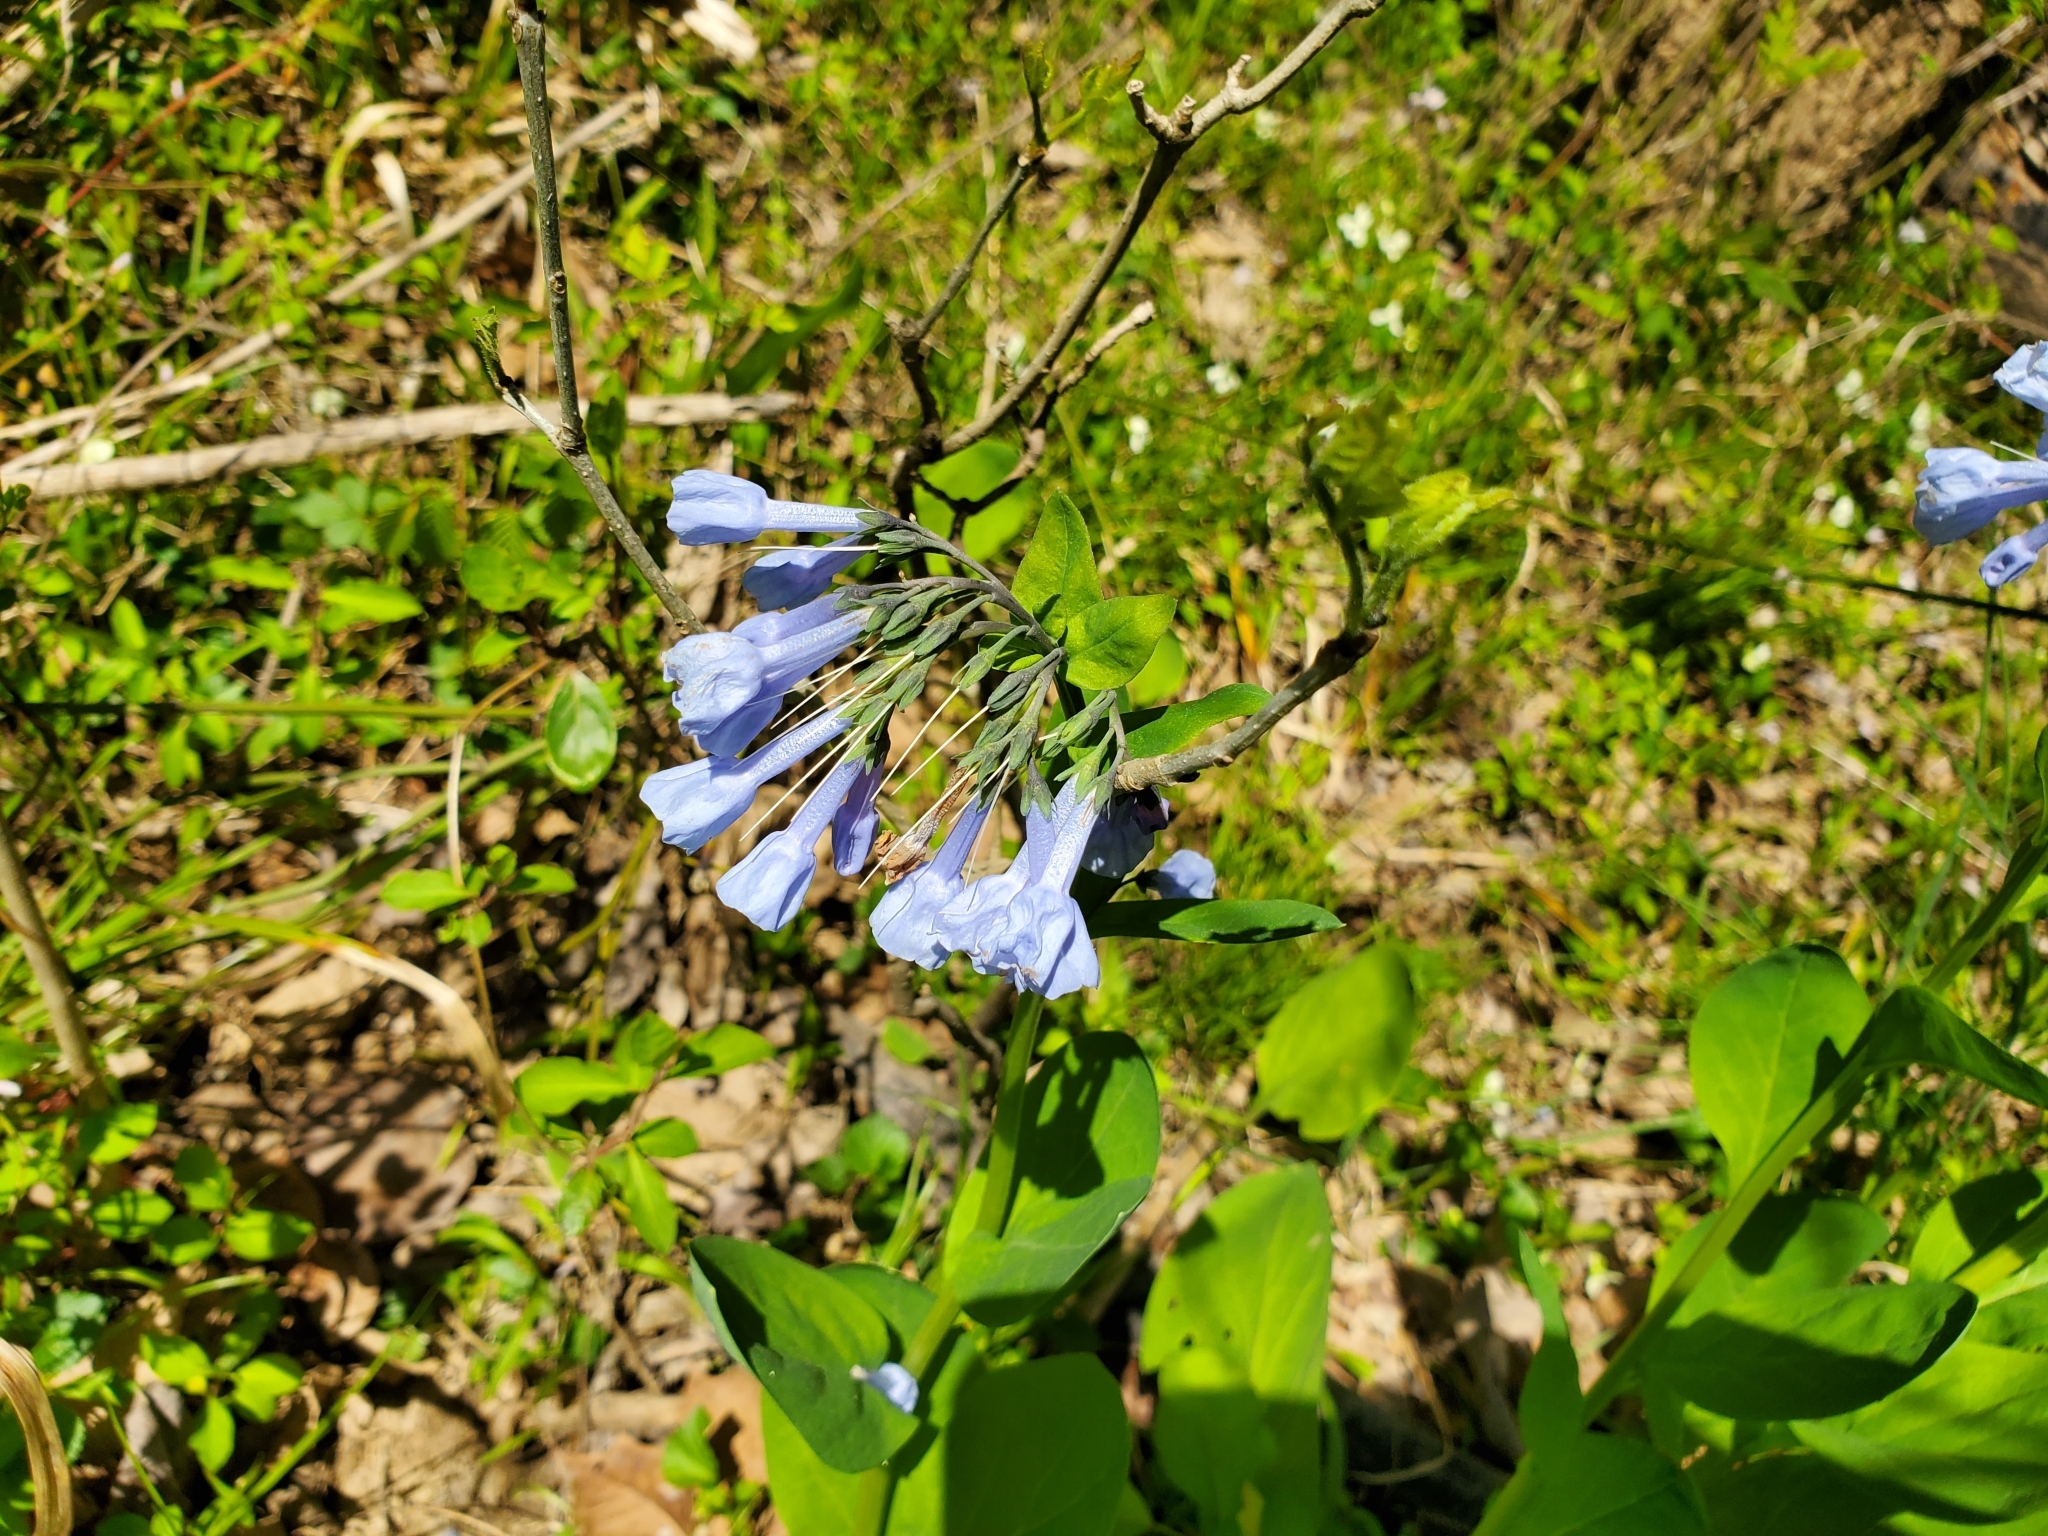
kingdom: Plantae
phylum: Tracheophyta
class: Magnoliopsida
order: Boraginales
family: Boraginaceae
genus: Mertensia
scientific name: Mertensia virginica
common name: Virginia bluebells
